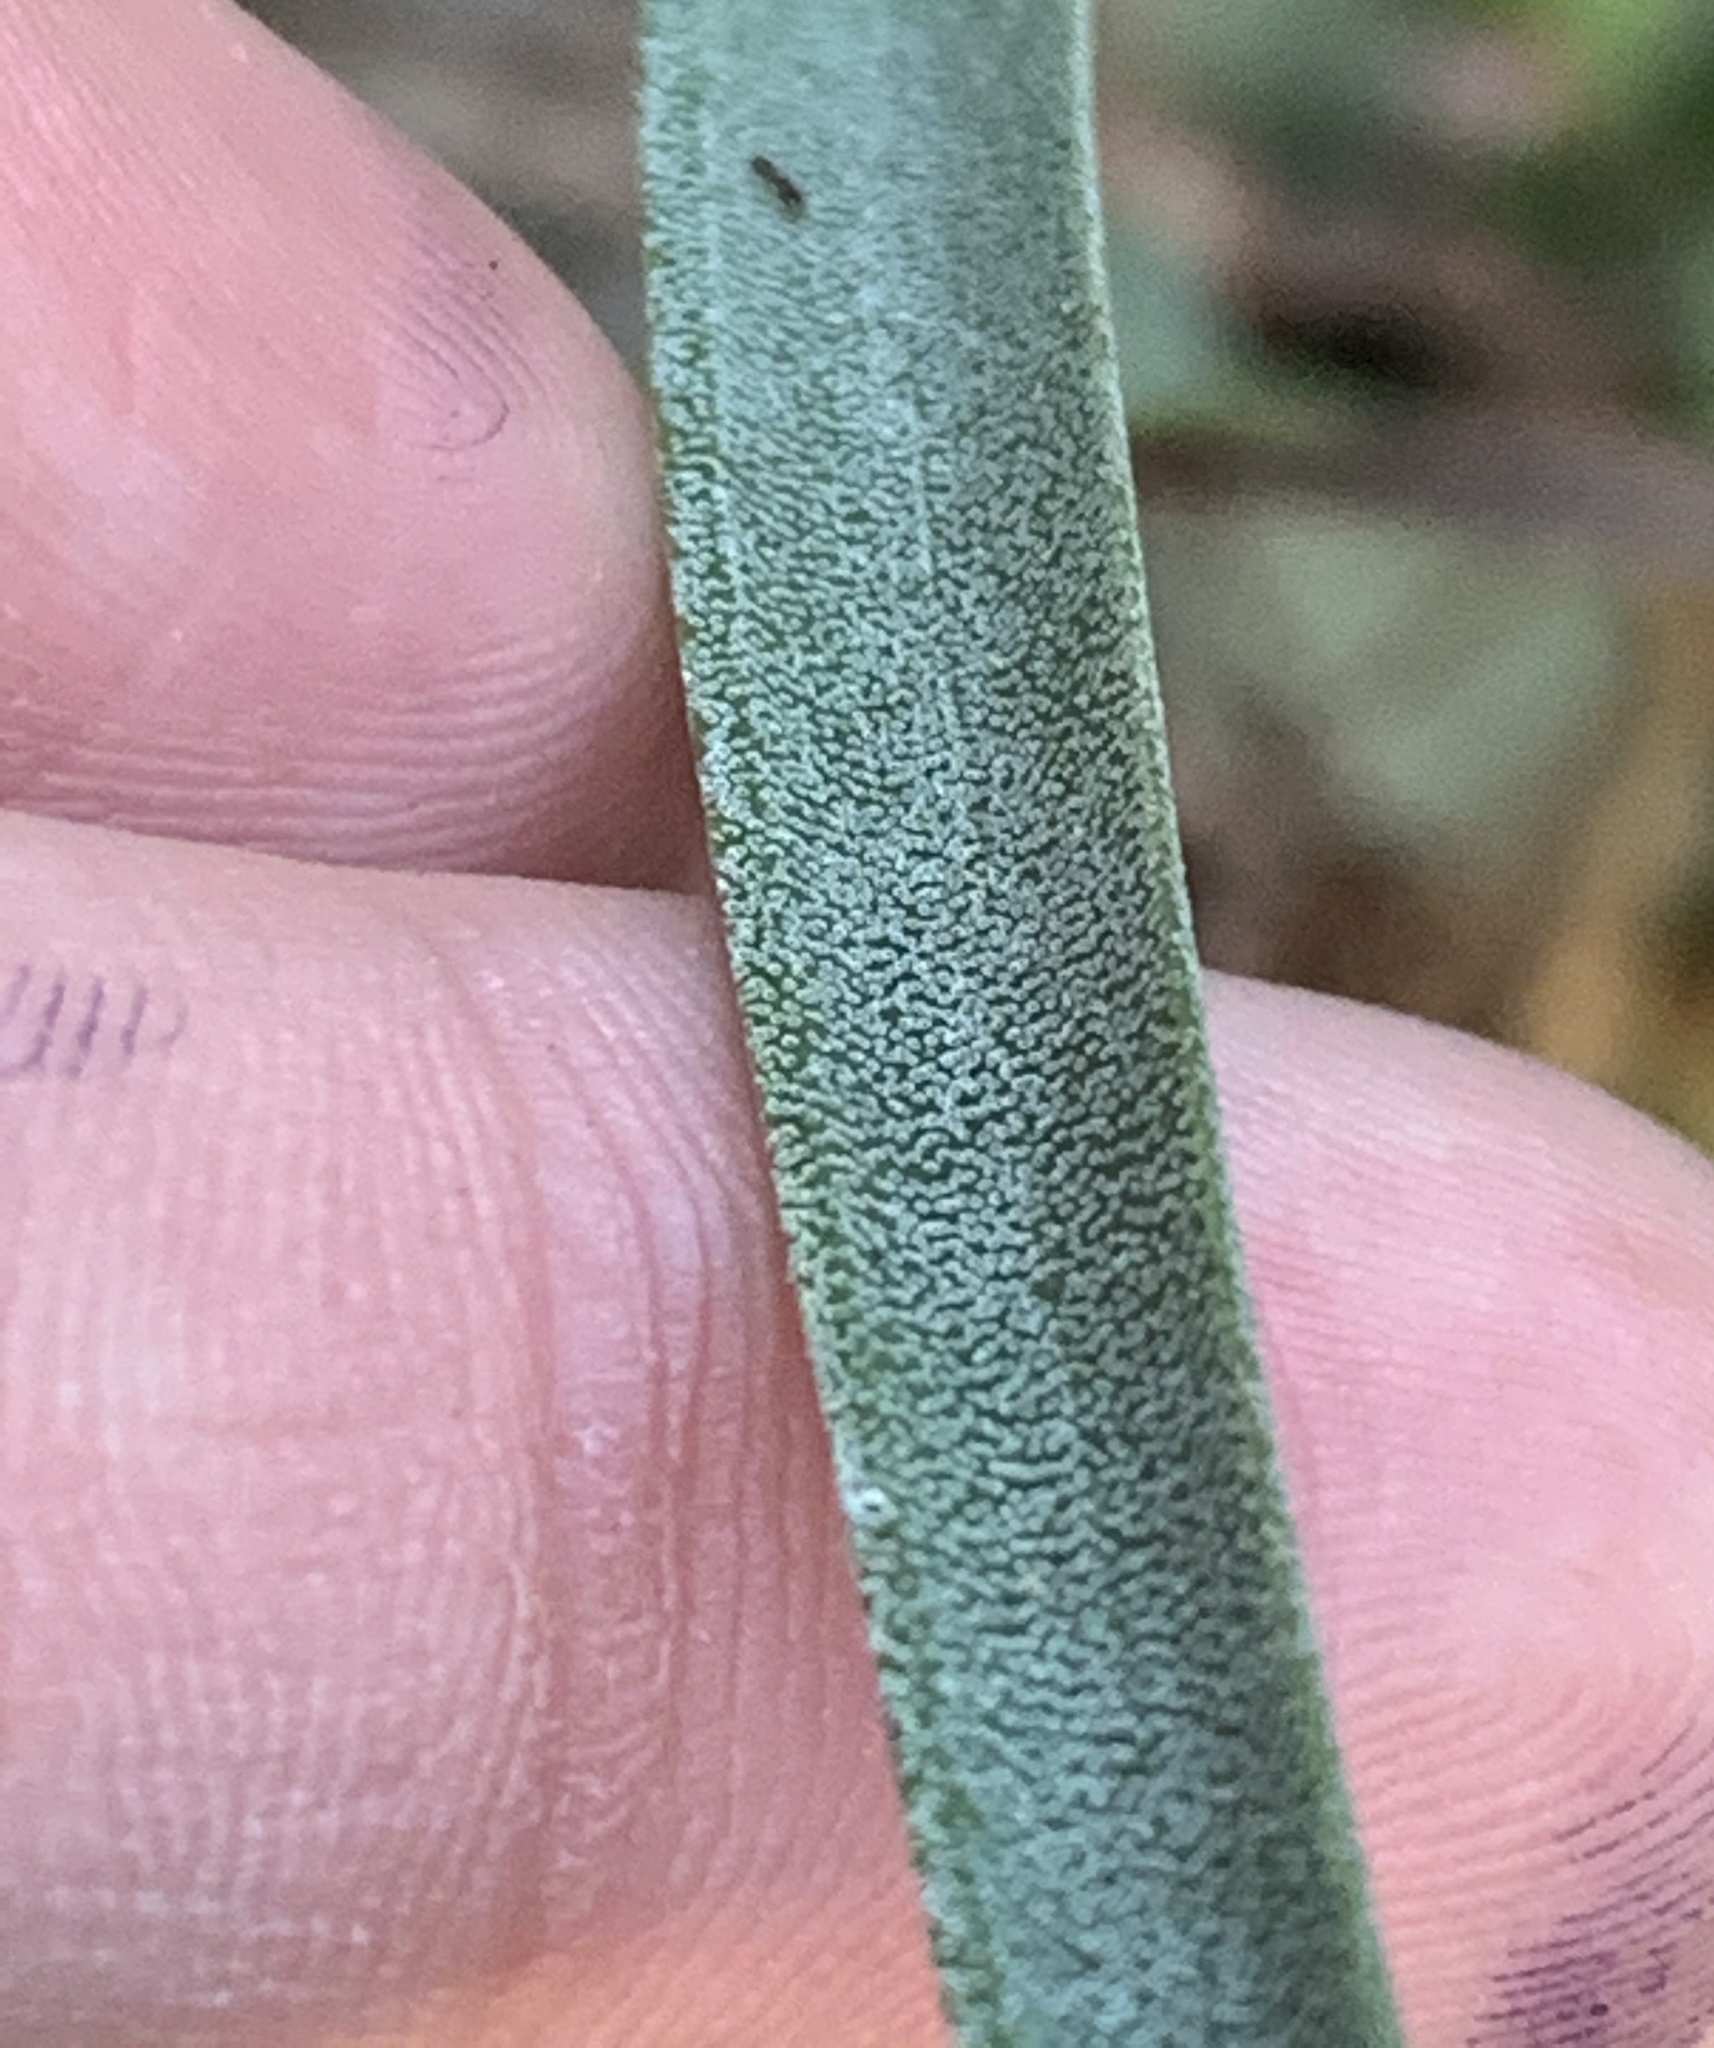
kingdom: Plantae
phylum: Tracheophyta
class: Liliopsida
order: Poales
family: Bromeliaceae
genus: Tillandsia
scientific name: Tillandsia utriculata
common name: Wild pine
